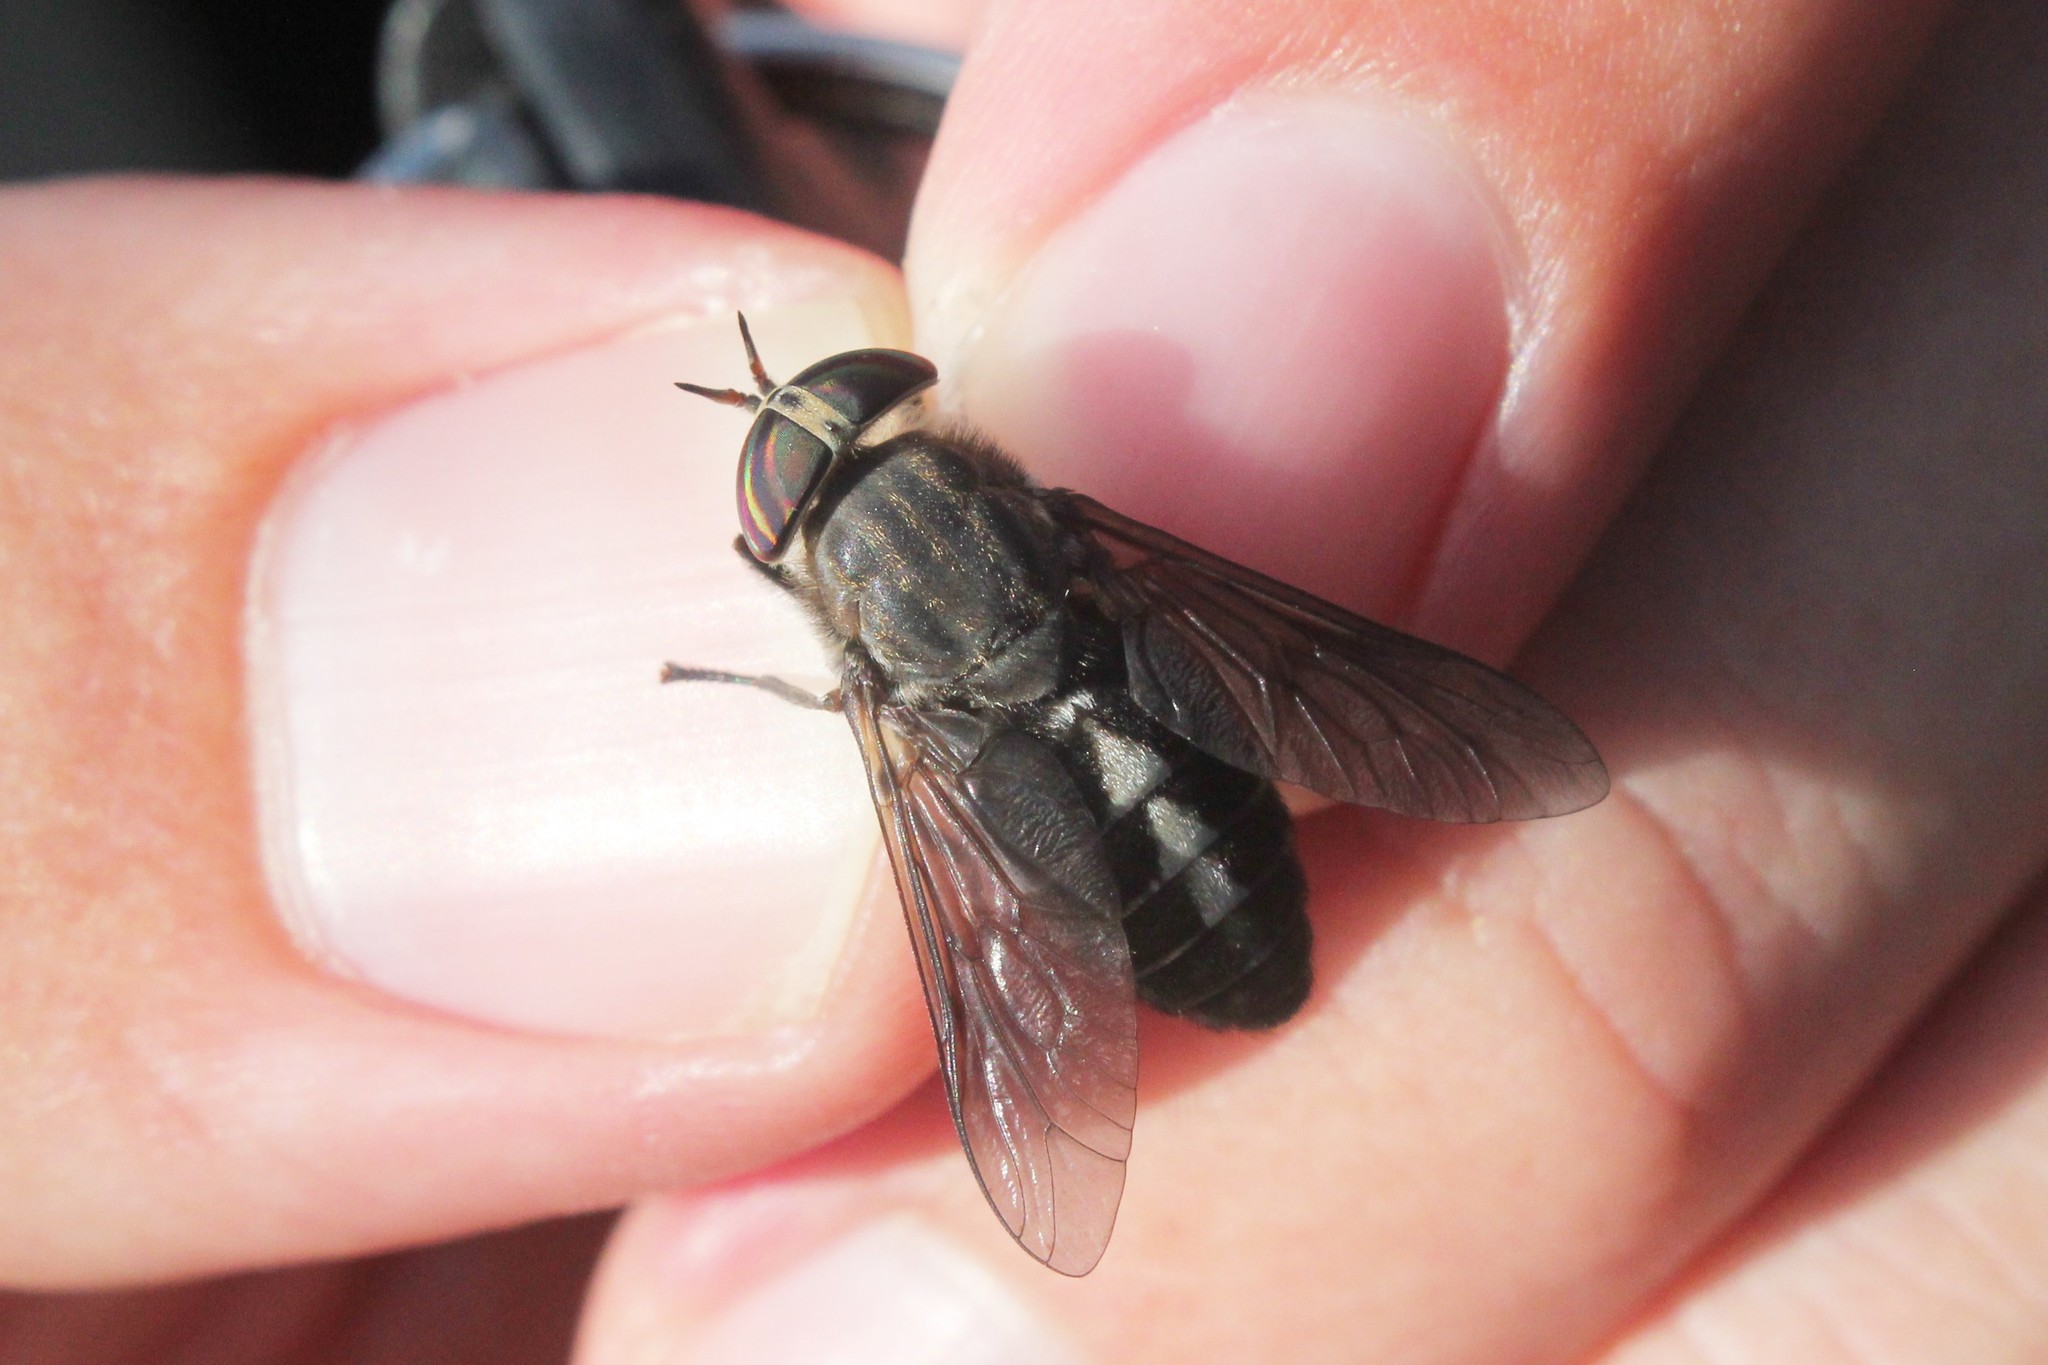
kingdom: Animalia
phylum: Arthropoda
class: Insecta
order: Diptera
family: Tabanidae
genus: Hybomitra
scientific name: Hybomitra sodalis
